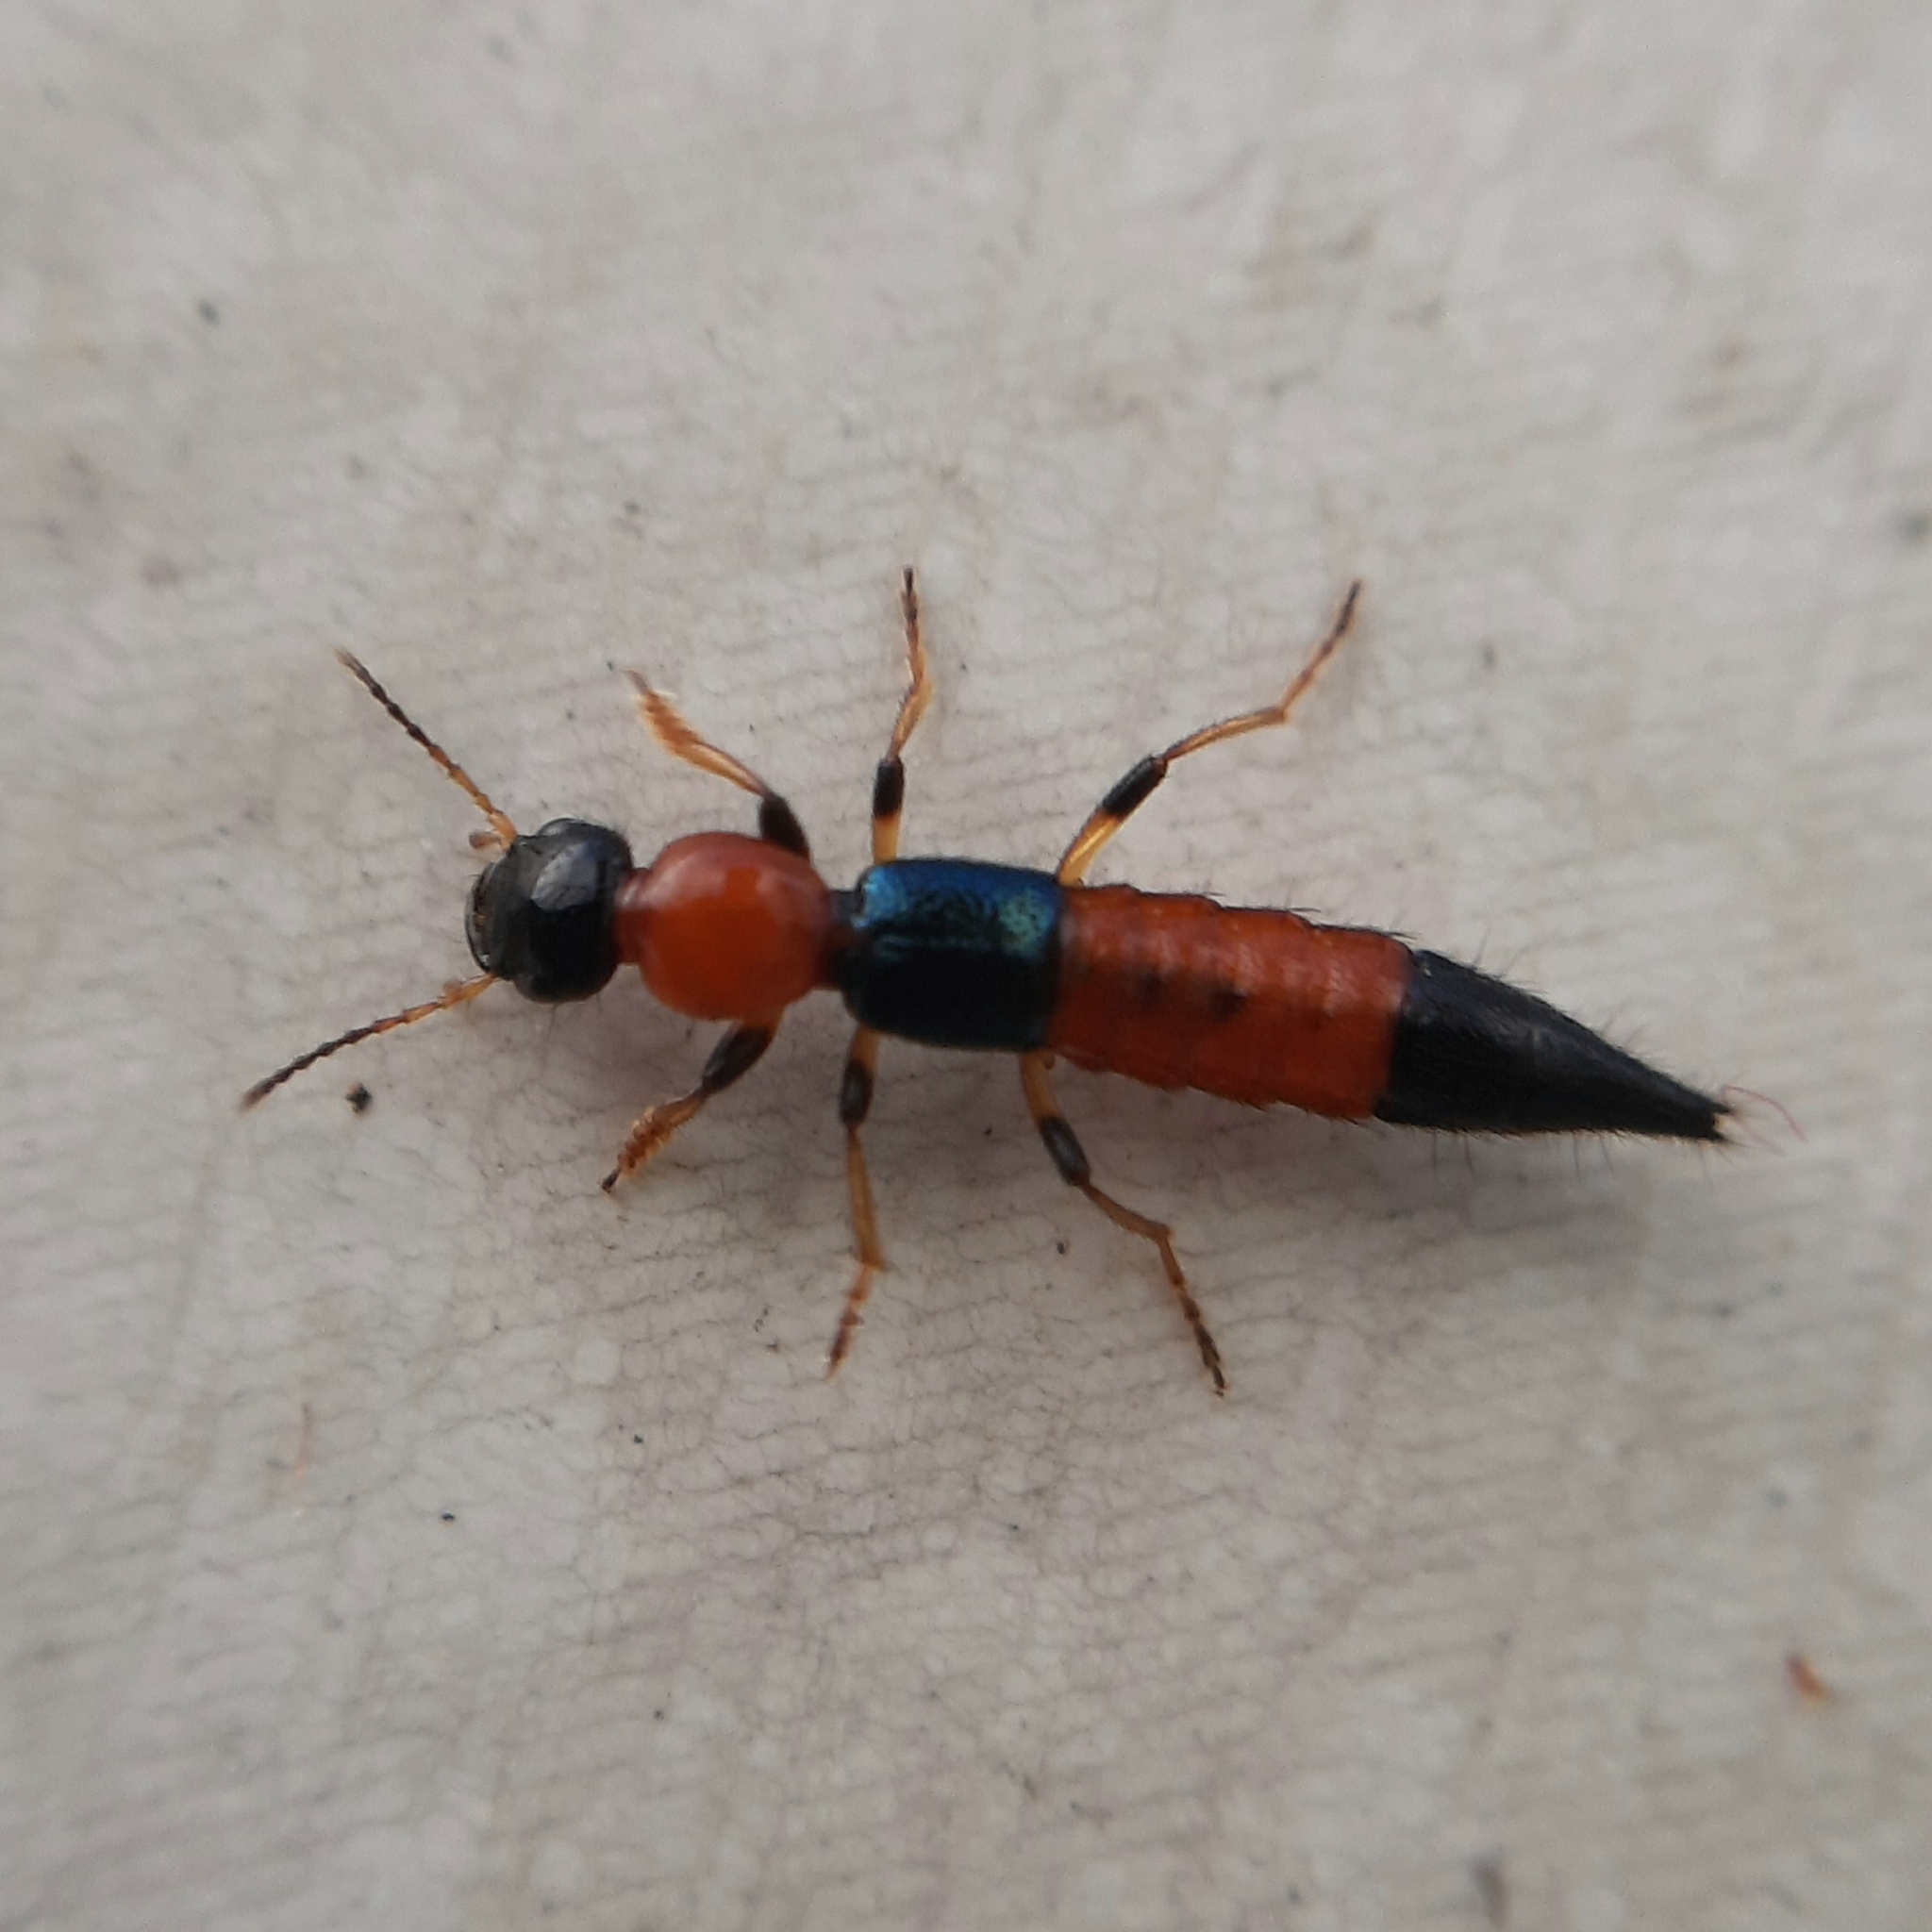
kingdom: Animalia
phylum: Arthropoda
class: Insecta
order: Coleoptera
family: Staphylinidae
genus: Paederus
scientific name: Paederus littoralis
